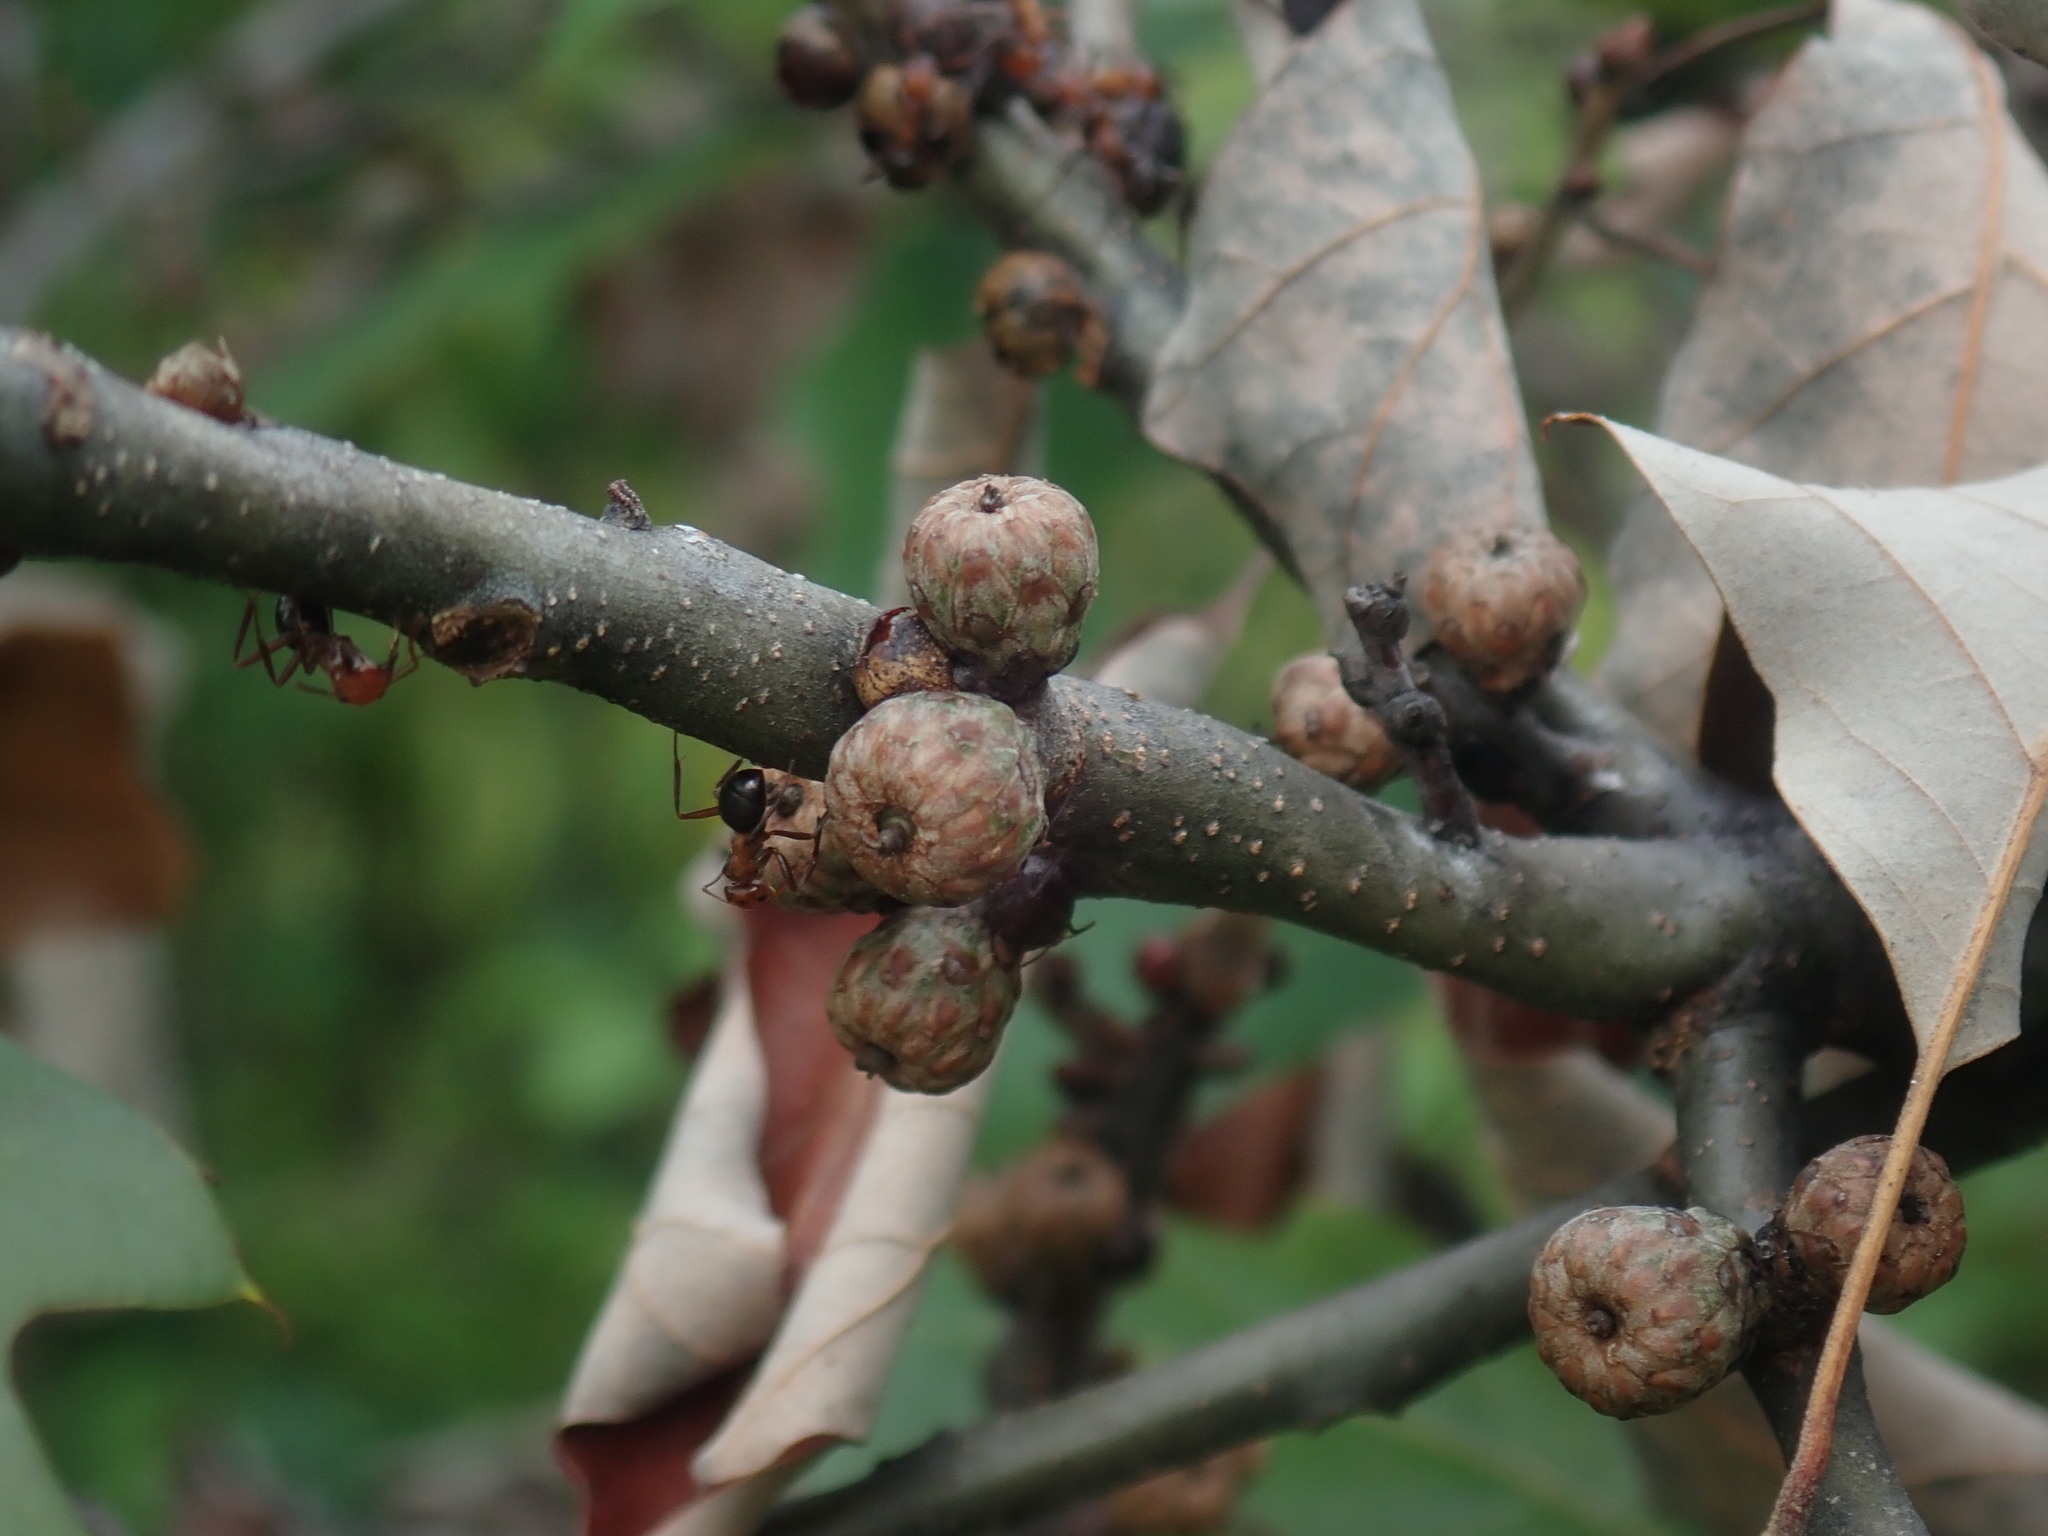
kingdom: Plantae
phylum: Tracheophyta
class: Magnoliopsida
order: Fagales
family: Fagaceae
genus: Quercus
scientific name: Quercus ilicifolia
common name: Bear oak
